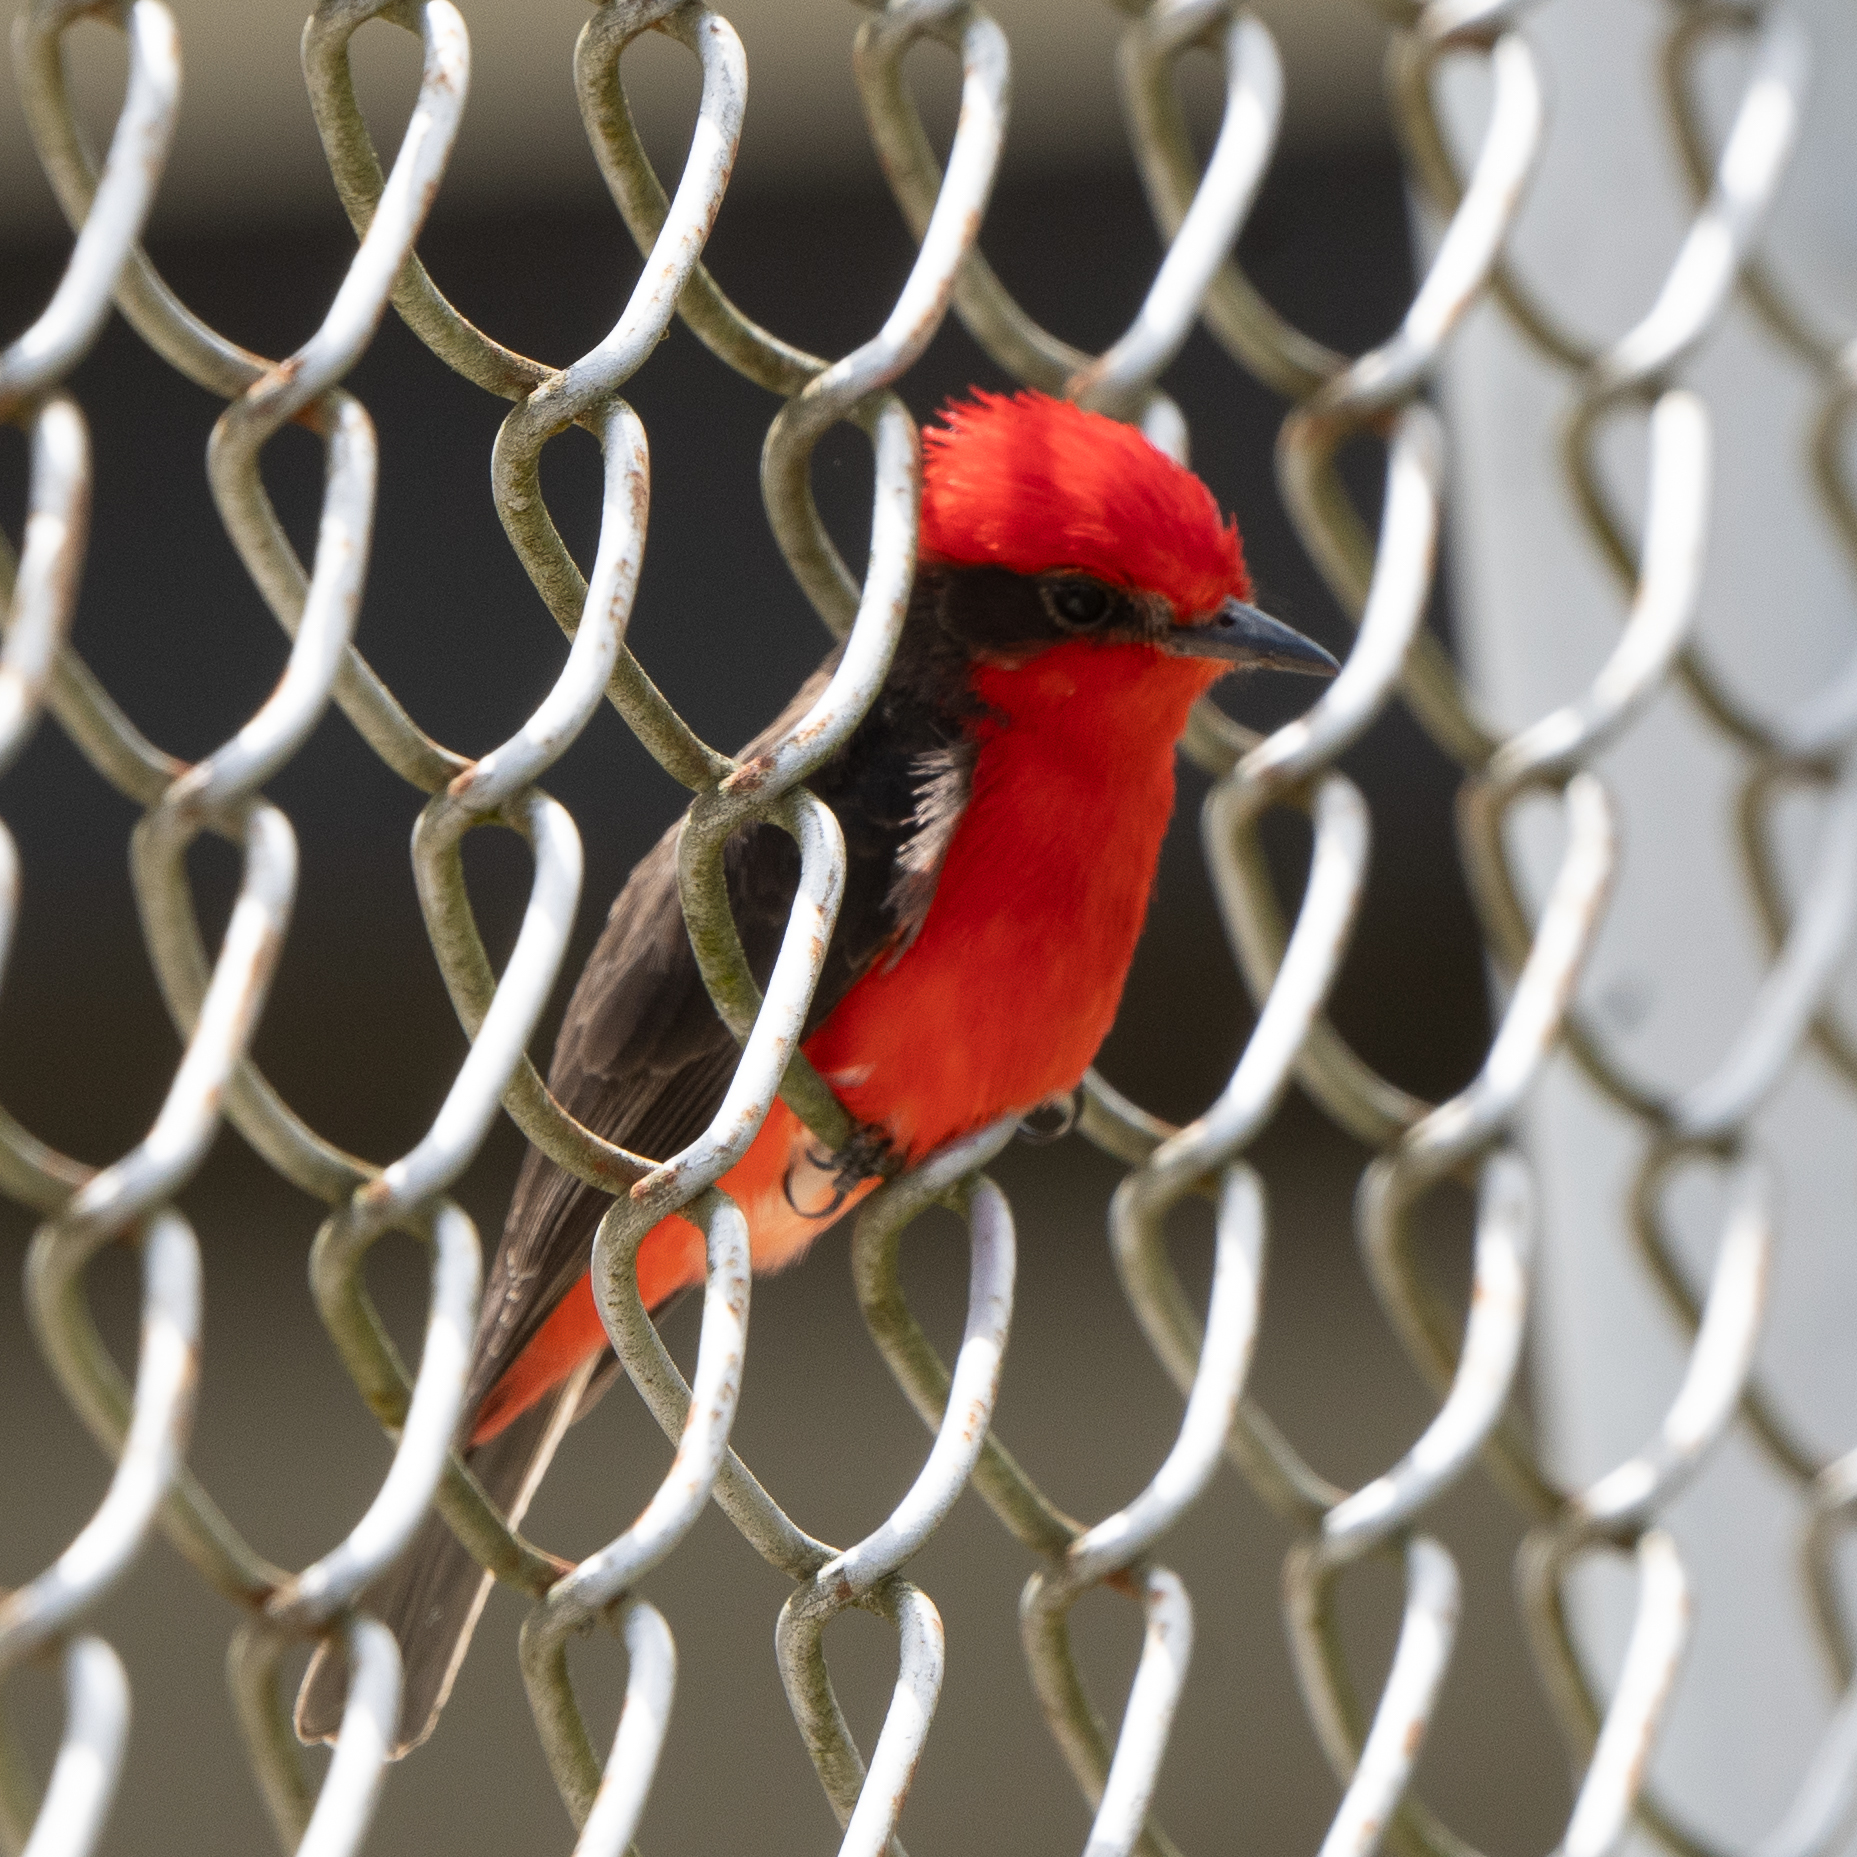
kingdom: Animalia
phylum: Chordata
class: Aves
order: Passeriformes
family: Tyrannidae
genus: Pyrocephalus
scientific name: Pyrocephalus rubinus
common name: Vermilion flycatcher
